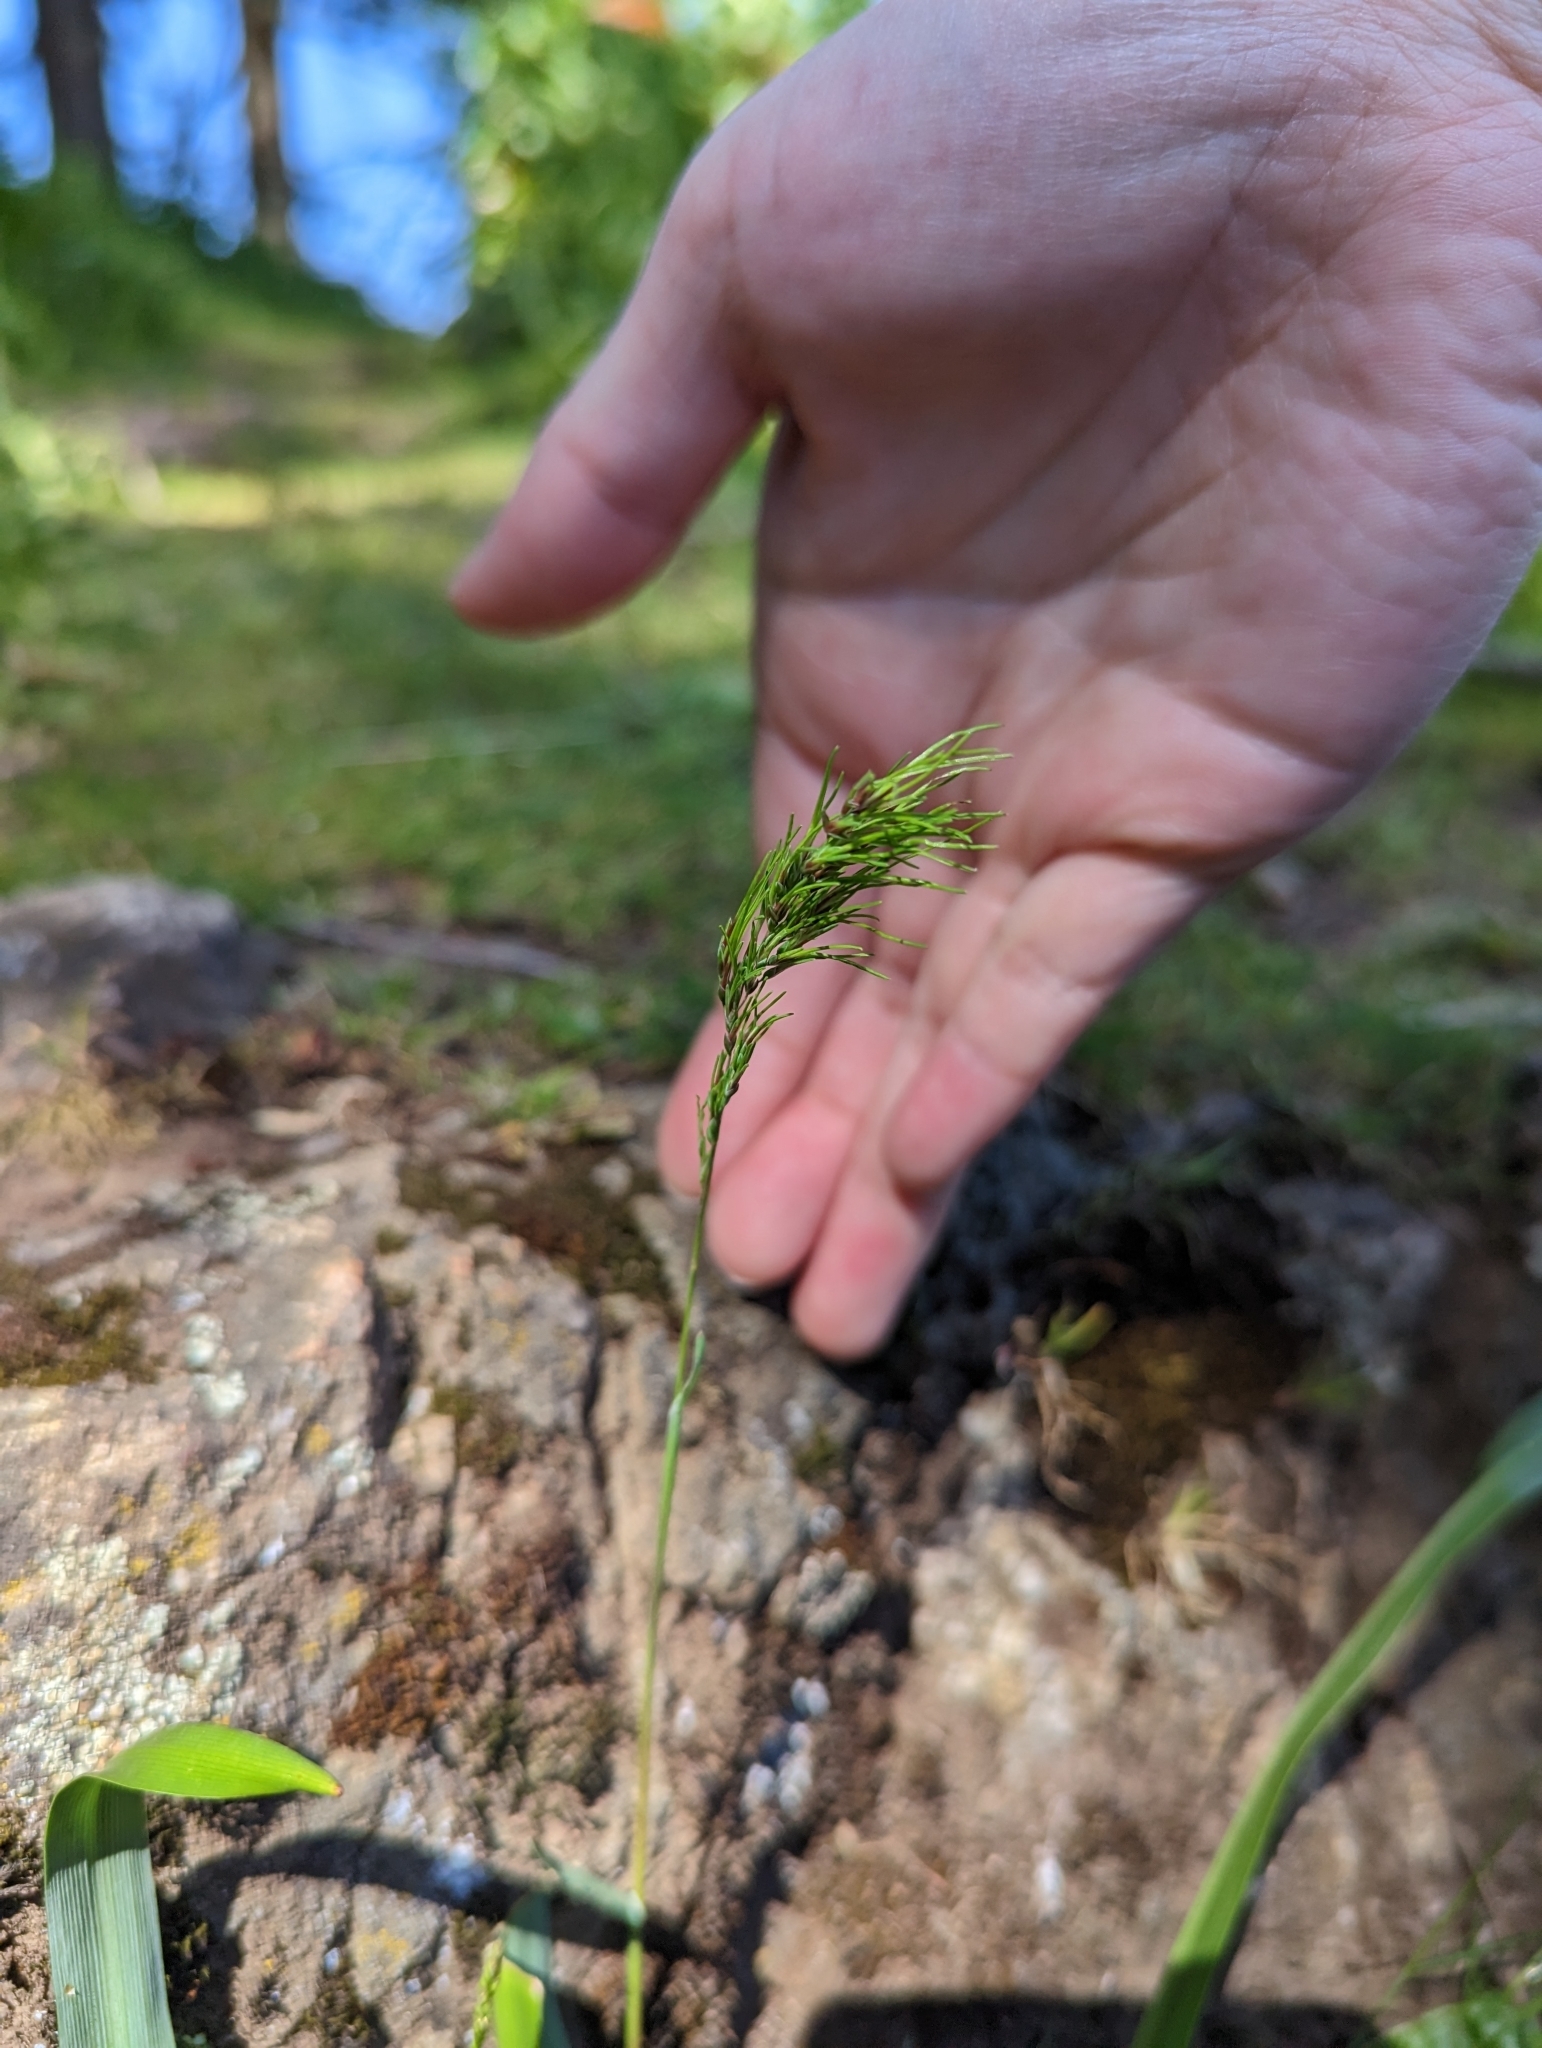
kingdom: Plantae
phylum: Tracheophyta
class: Liliopsida
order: Poales
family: Poaceae
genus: Poa
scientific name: Poa bulbosa
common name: Bulbous bluegrass
